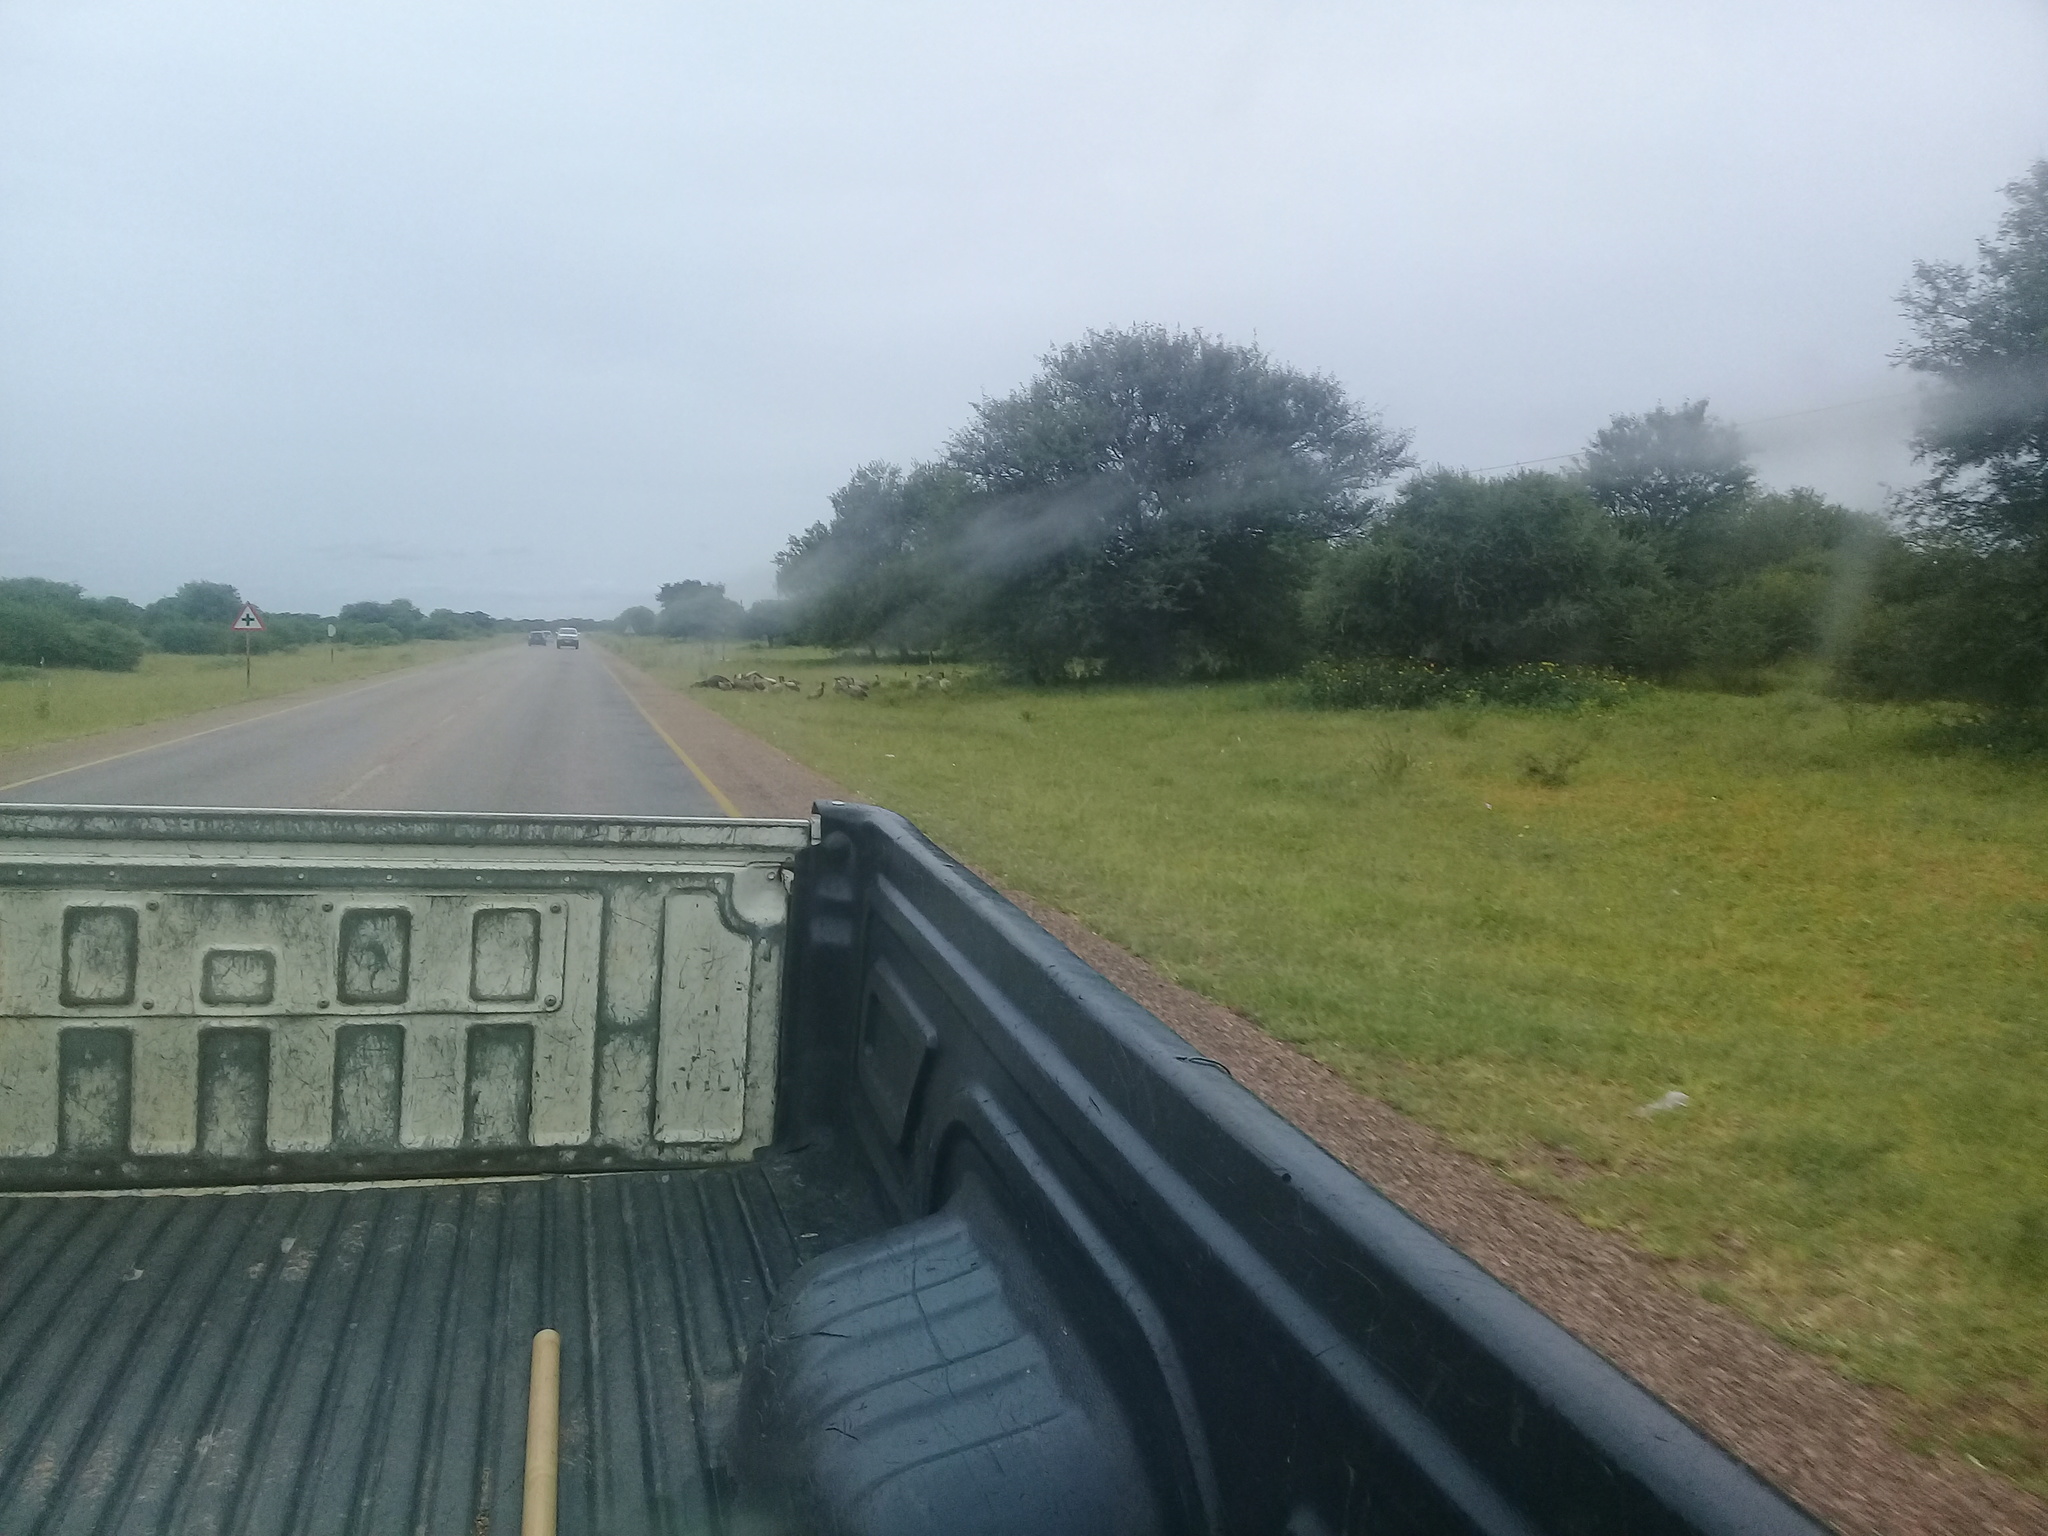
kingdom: Animalia
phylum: Chordata
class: Aves
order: Accipitriformes
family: Accipitridae
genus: Gyps
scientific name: Gyps africanus
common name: White-backed vulture
